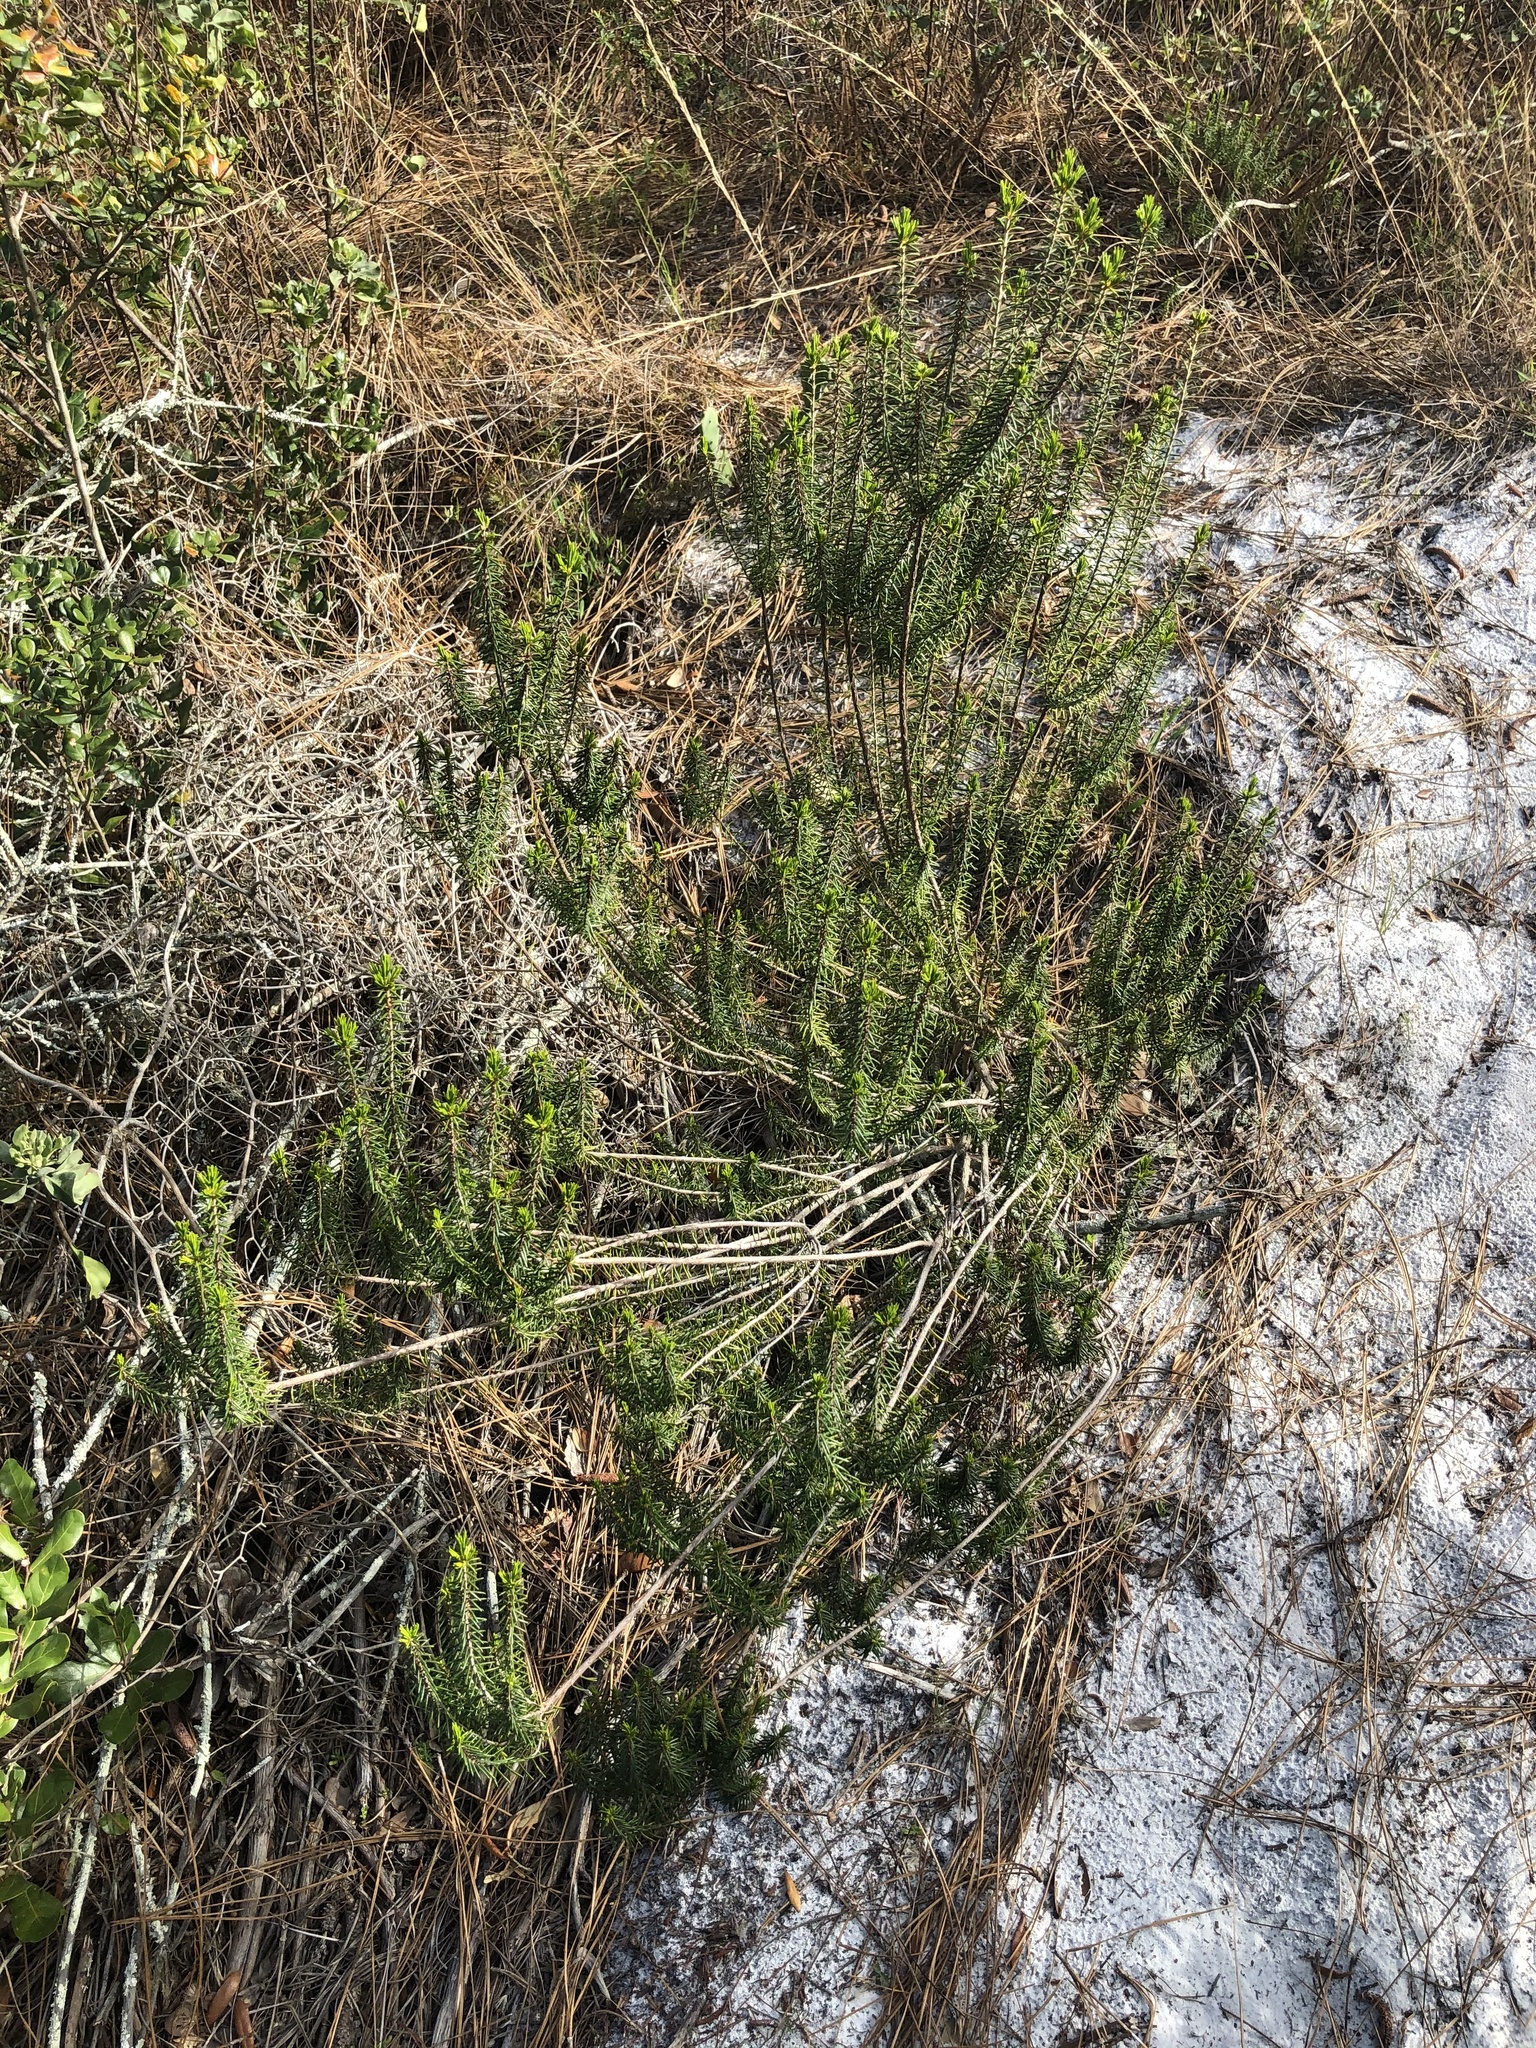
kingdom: Plantae
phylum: Tracheophyta
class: Magnoliopsida
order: Ericales
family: Ericaceae
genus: Ceratiola
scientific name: Ceratiola ericoides
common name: Sandhill-rosemary
